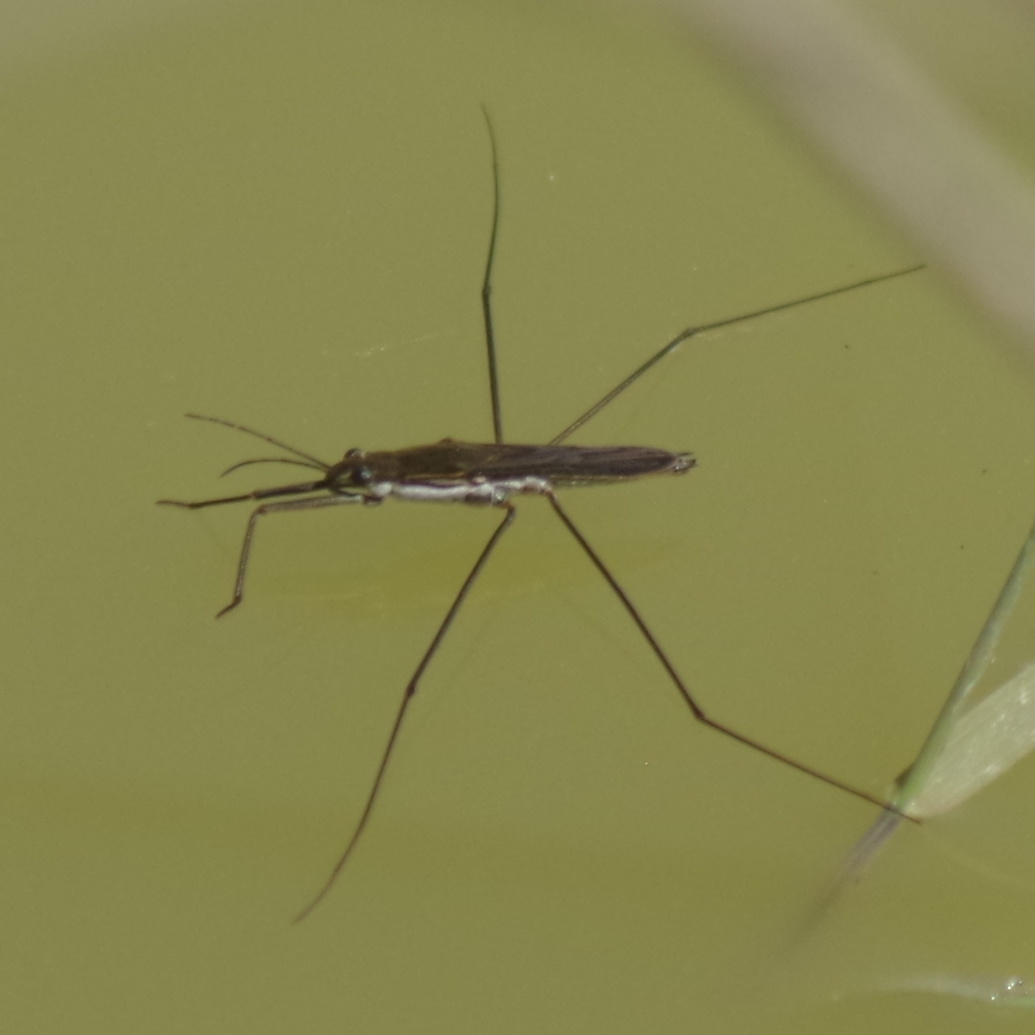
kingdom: Animalia
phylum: Arthropoda
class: Insecta
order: Hemiptera
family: Gerridae
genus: Aquarius
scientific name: Aquarius paludum
